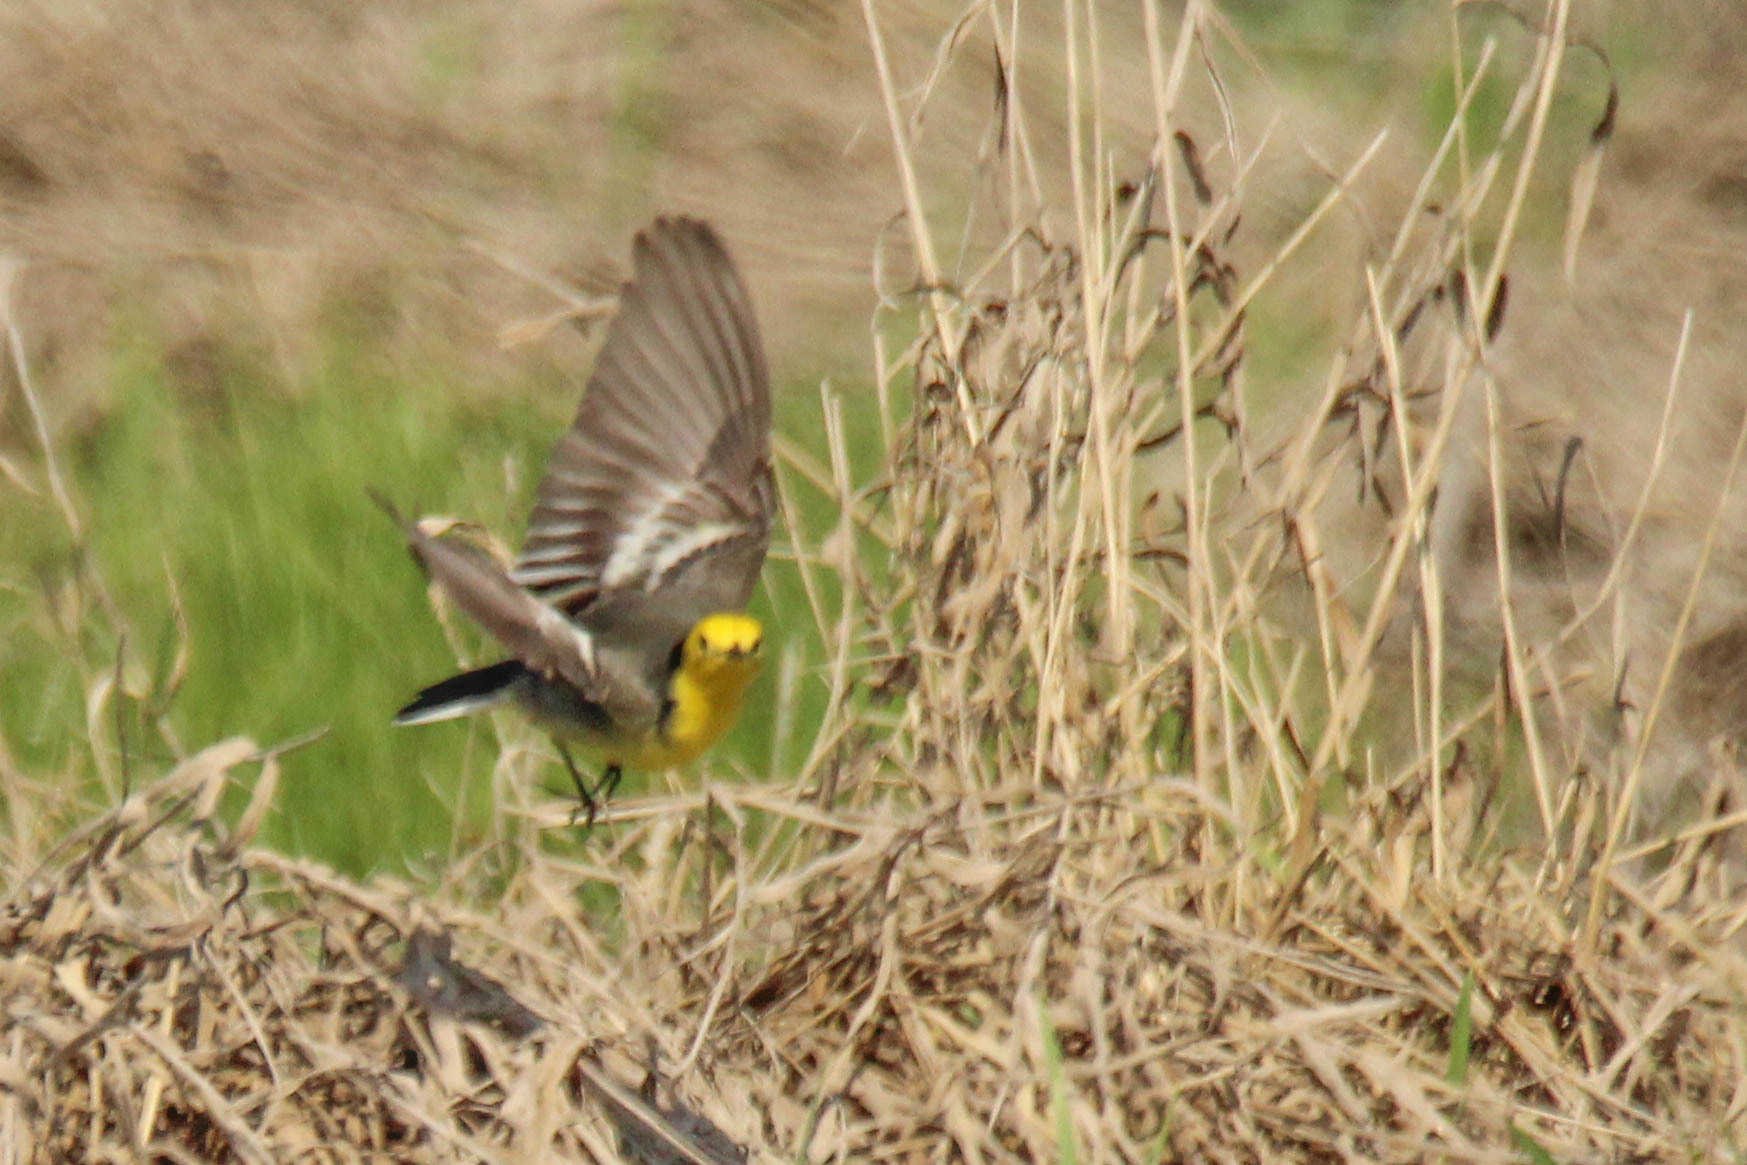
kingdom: Animalia
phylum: Chordata
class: Aves
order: Passeriformes
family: Motacillidae
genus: Motacilla
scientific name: Motacilla citreola
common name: Citrine wagtail
